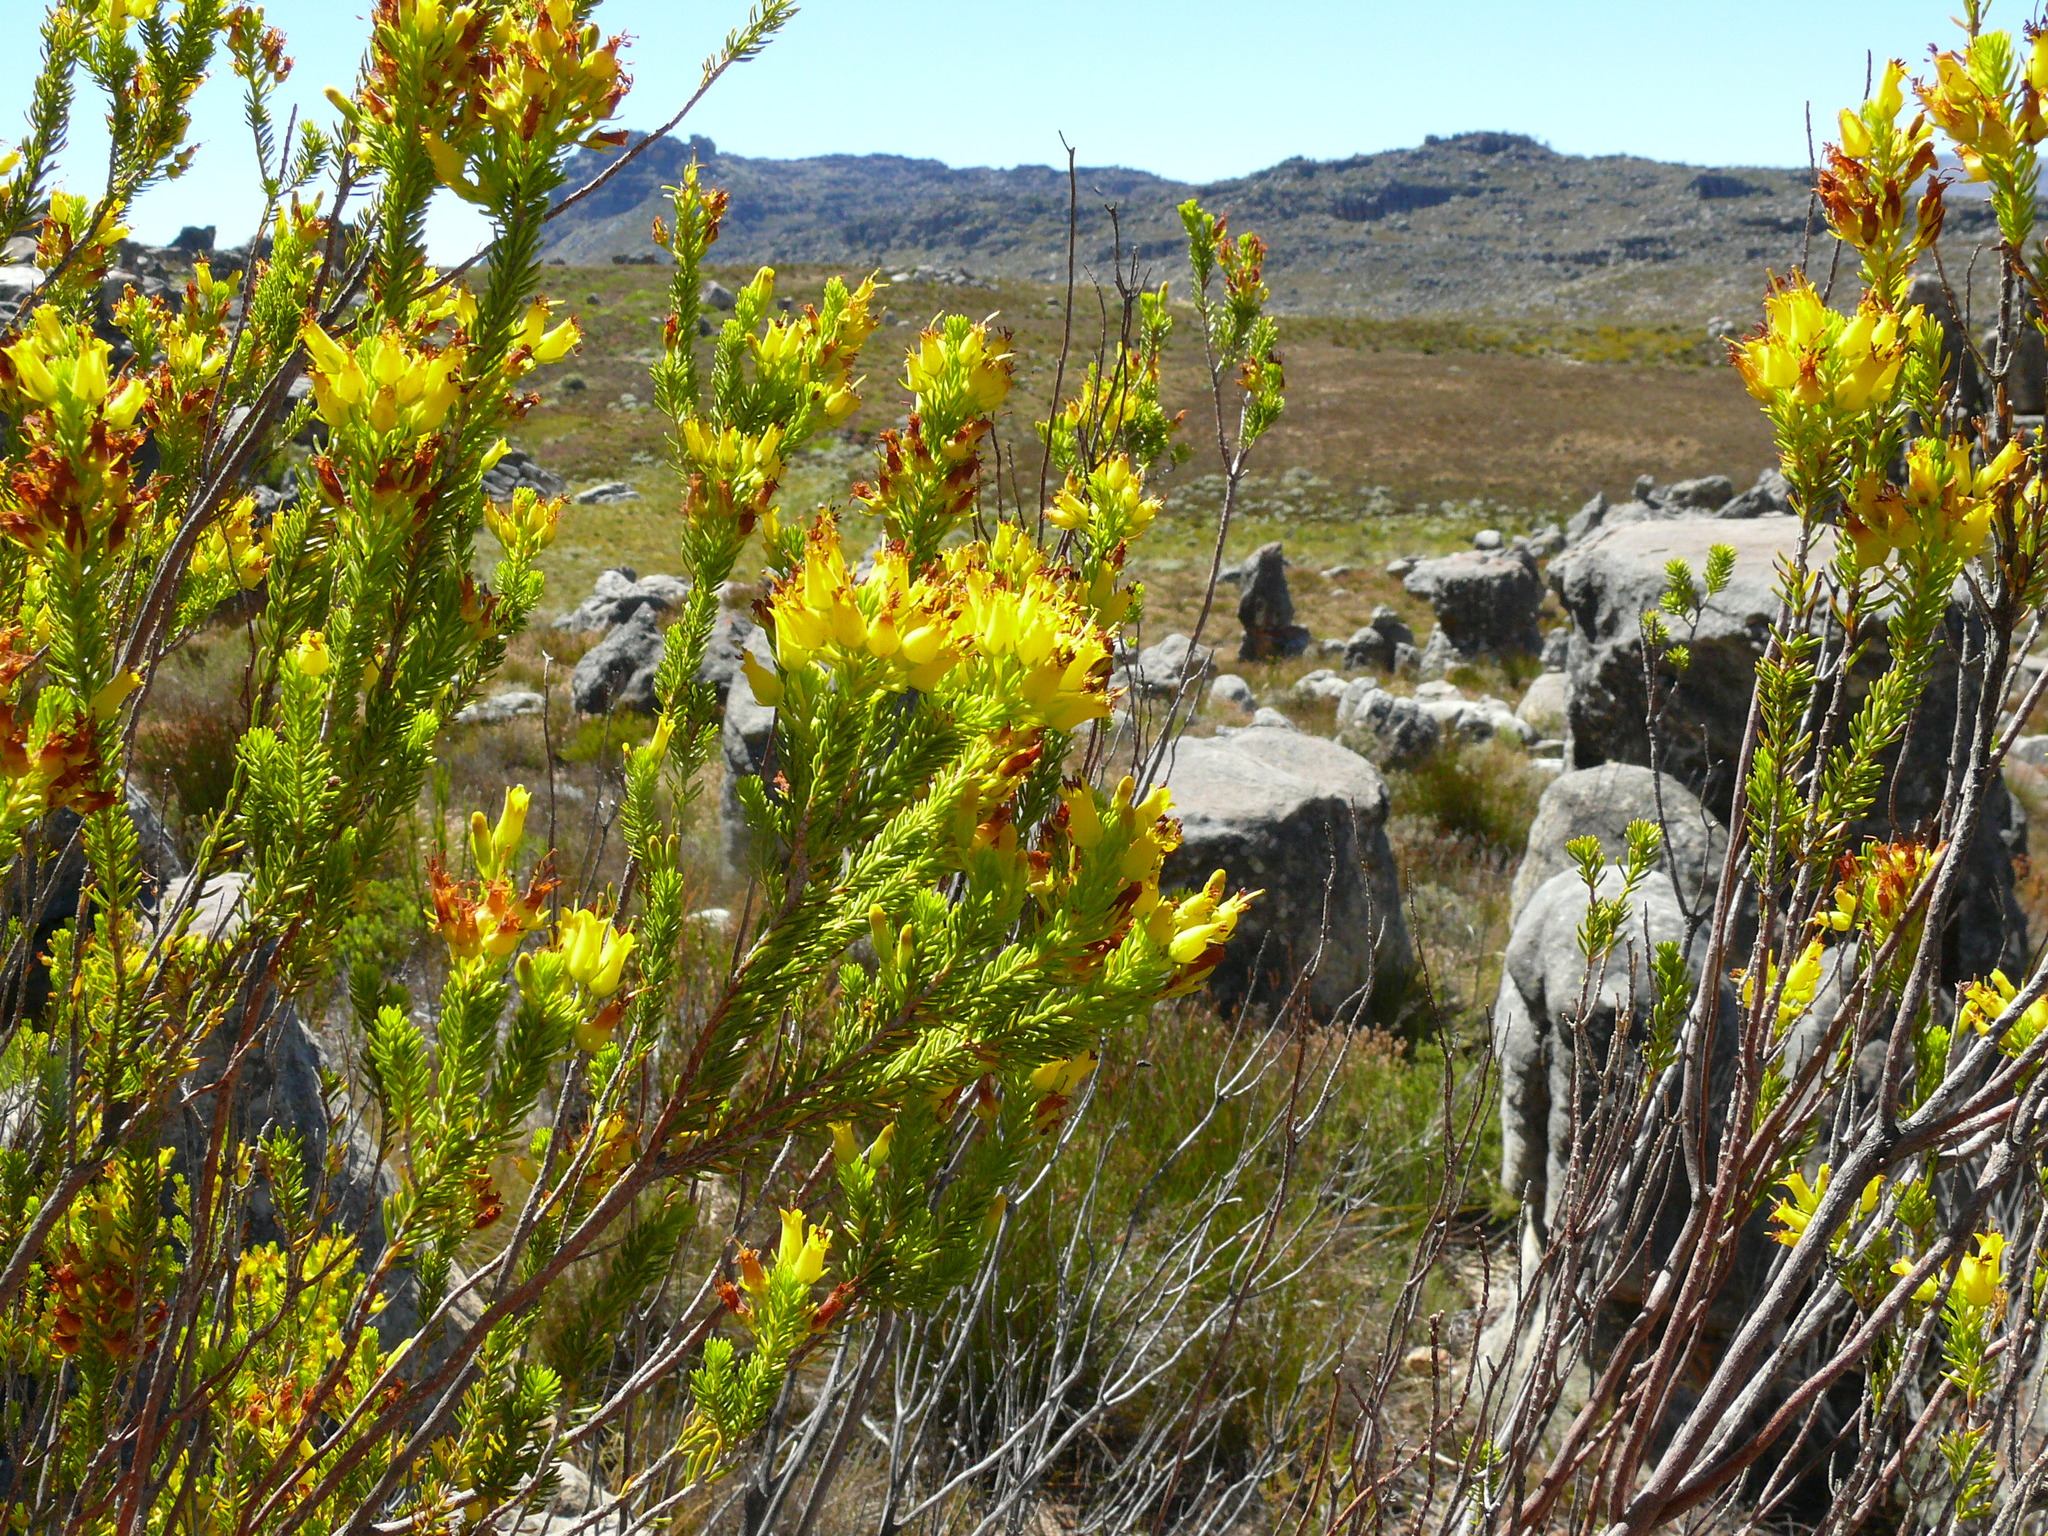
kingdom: Plantae
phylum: Tracheophyta
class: Magnoliopsida
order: Ericales
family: Ericaceae
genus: Erica
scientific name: Erica parilis
